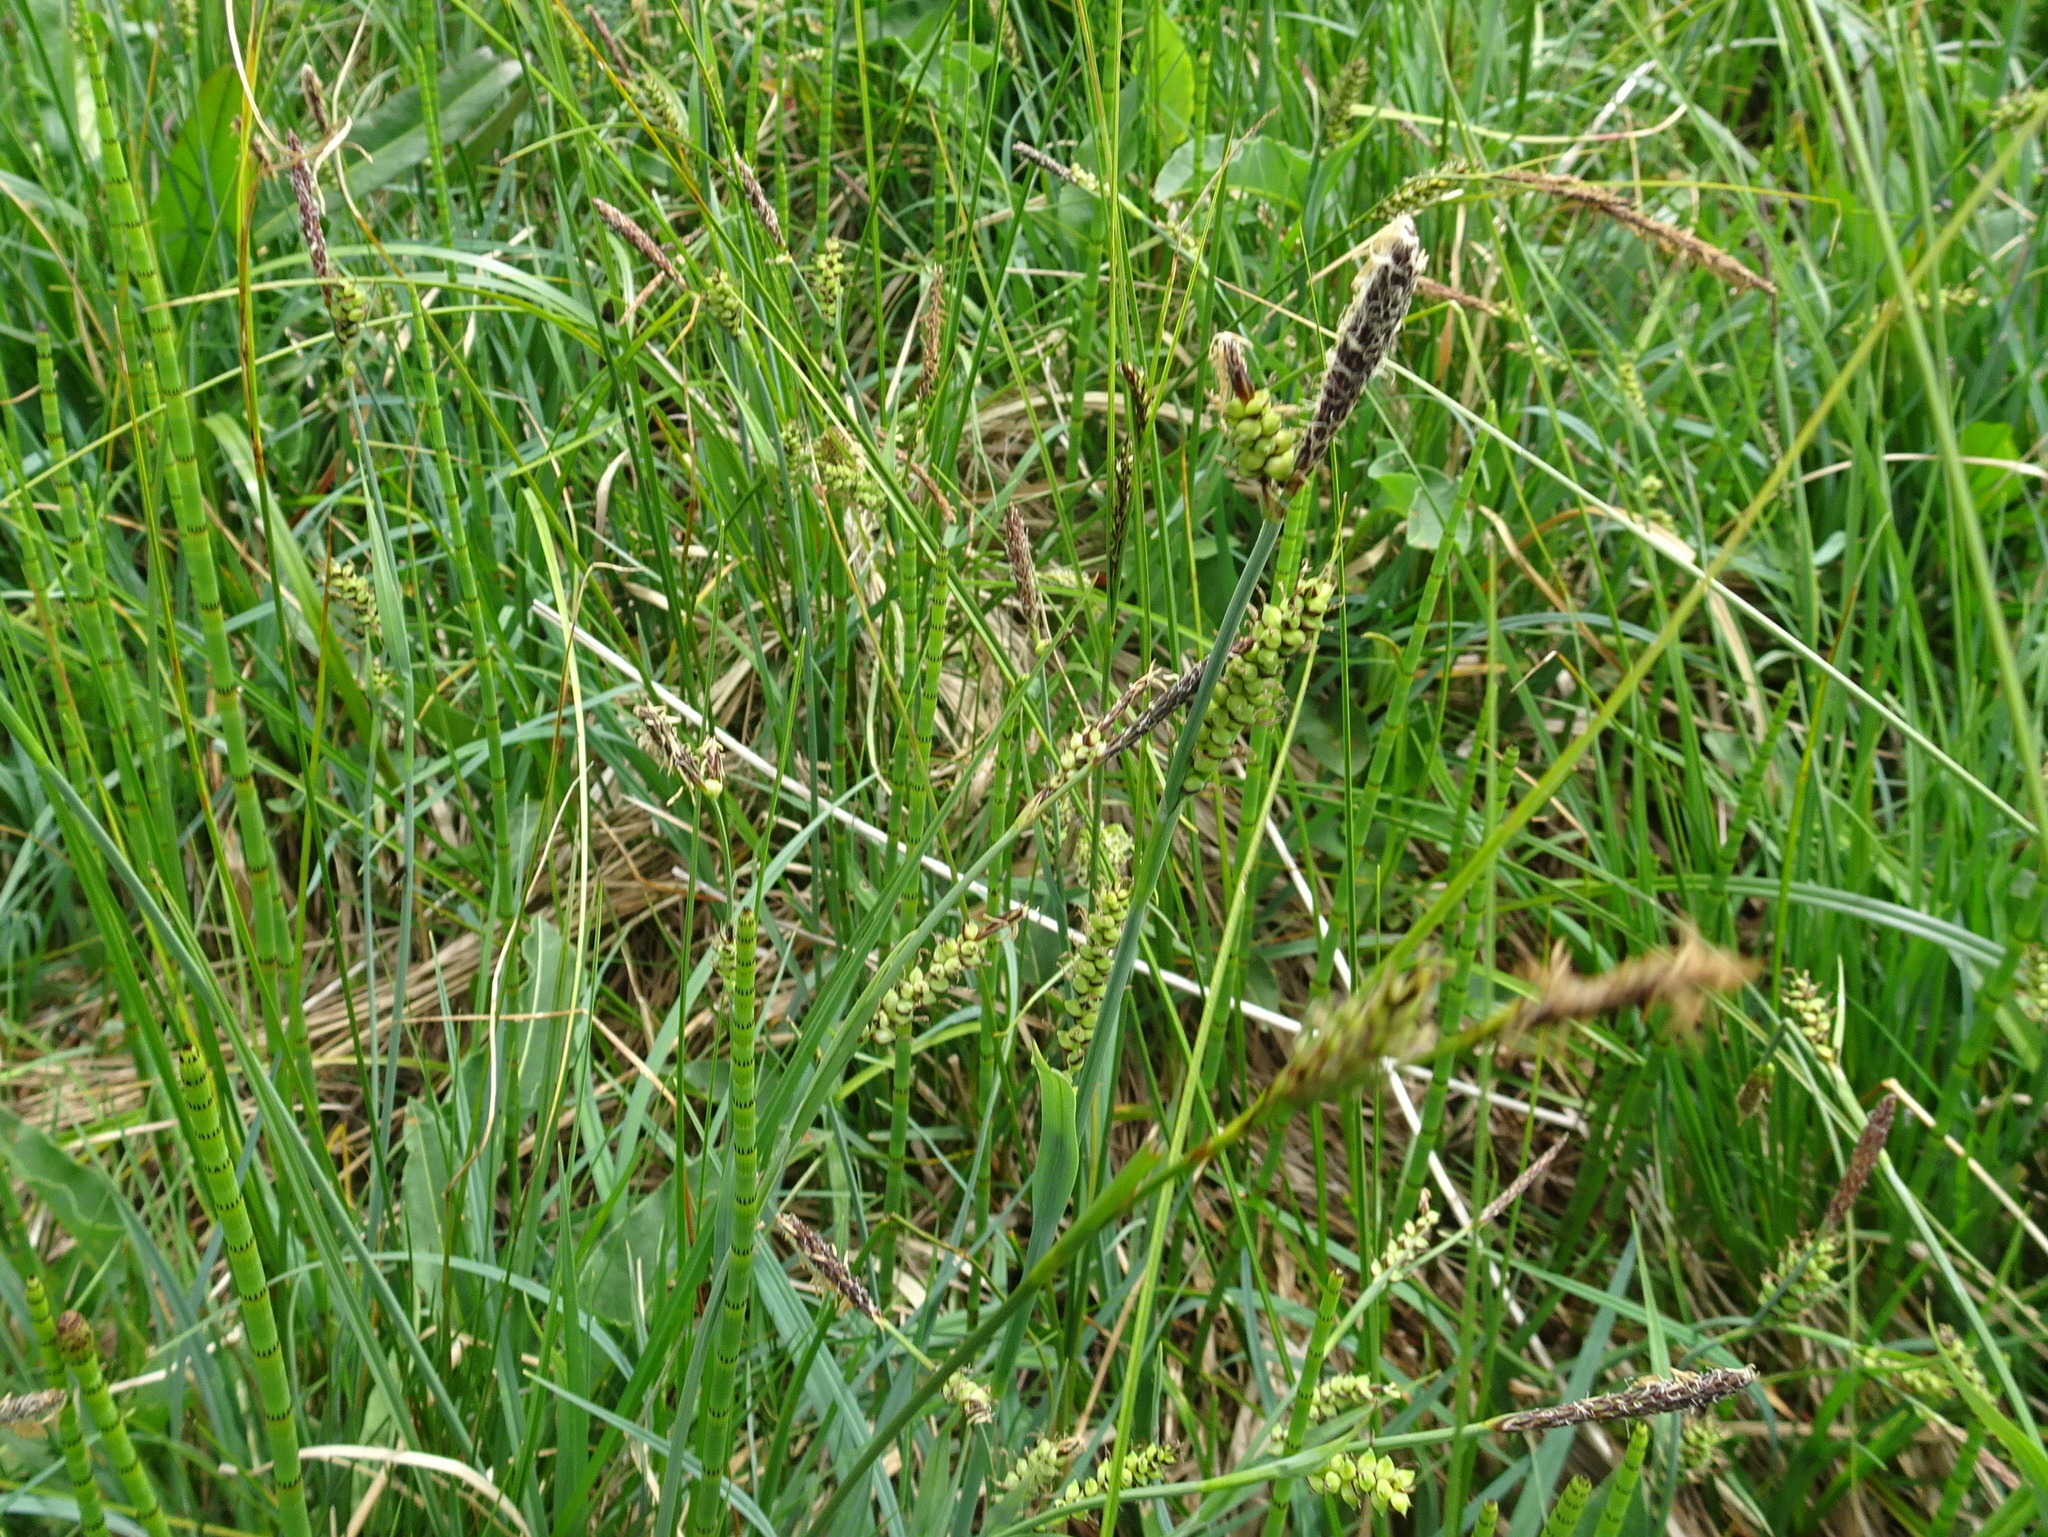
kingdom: Plantae
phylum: Tracheophyta
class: Liliopsida
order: Poales
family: Cyperaceae
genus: Carex
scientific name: Carex panicea
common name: Carnation sedge
